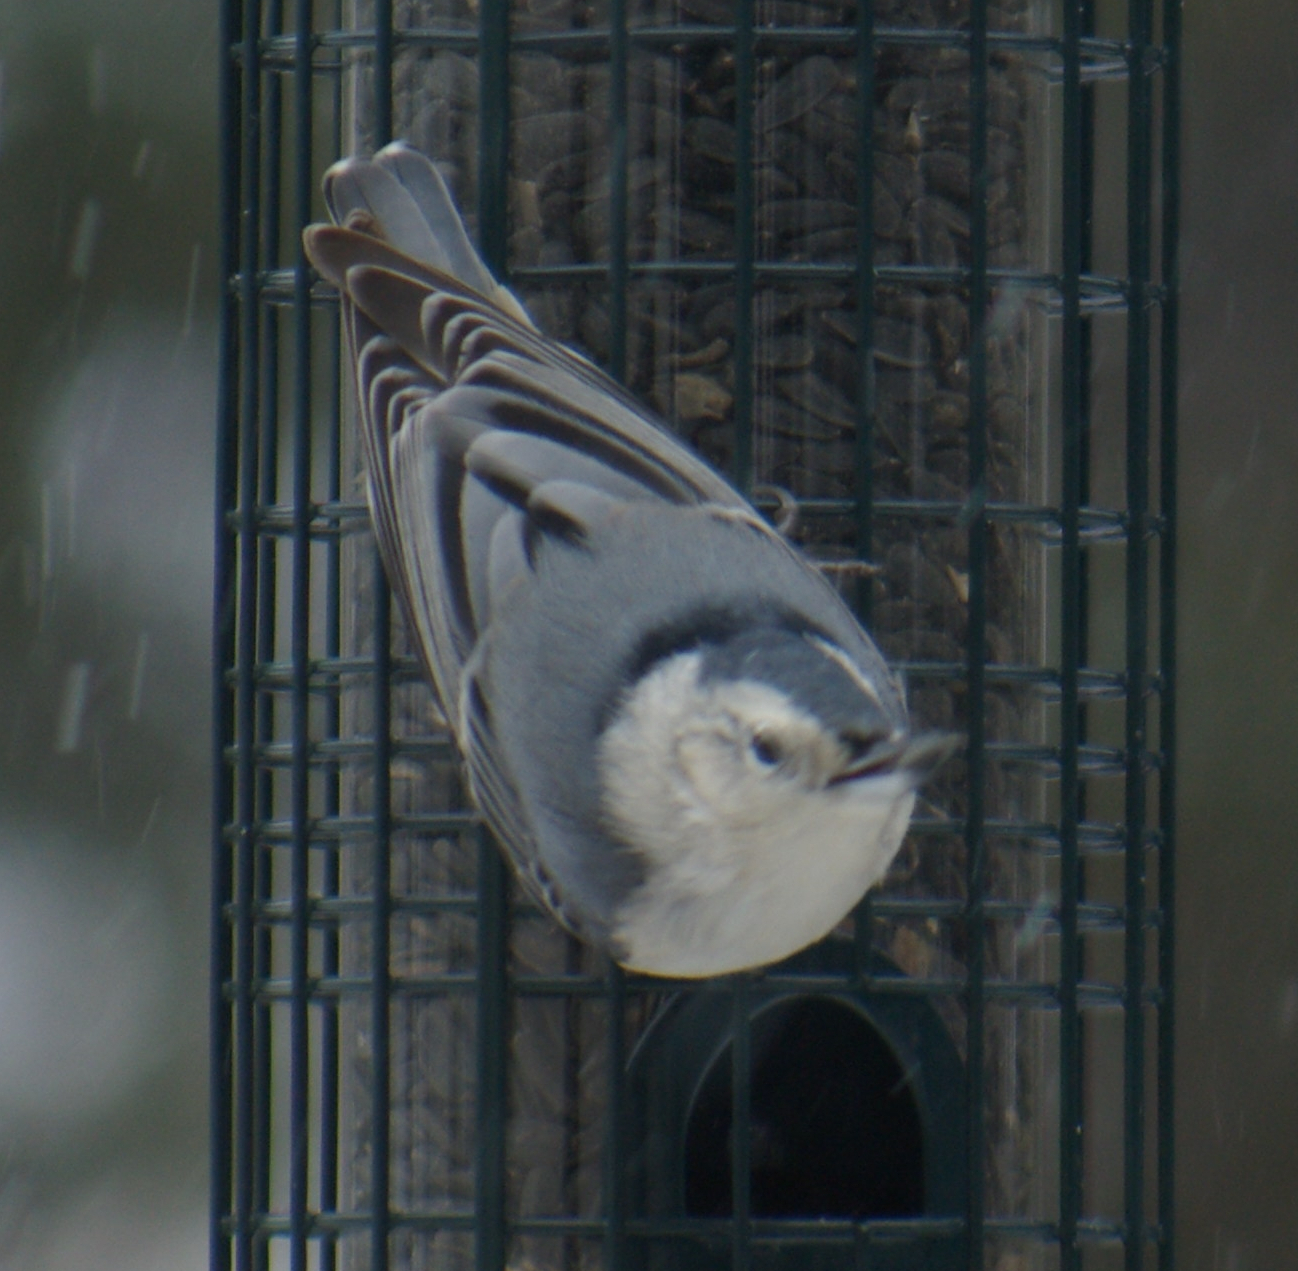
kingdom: Animalia
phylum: Chordata
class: Aves
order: Passeriformes
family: Sittidae
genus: Sitta
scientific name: Sitta carolinensis
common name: White-breasted nuthatch
